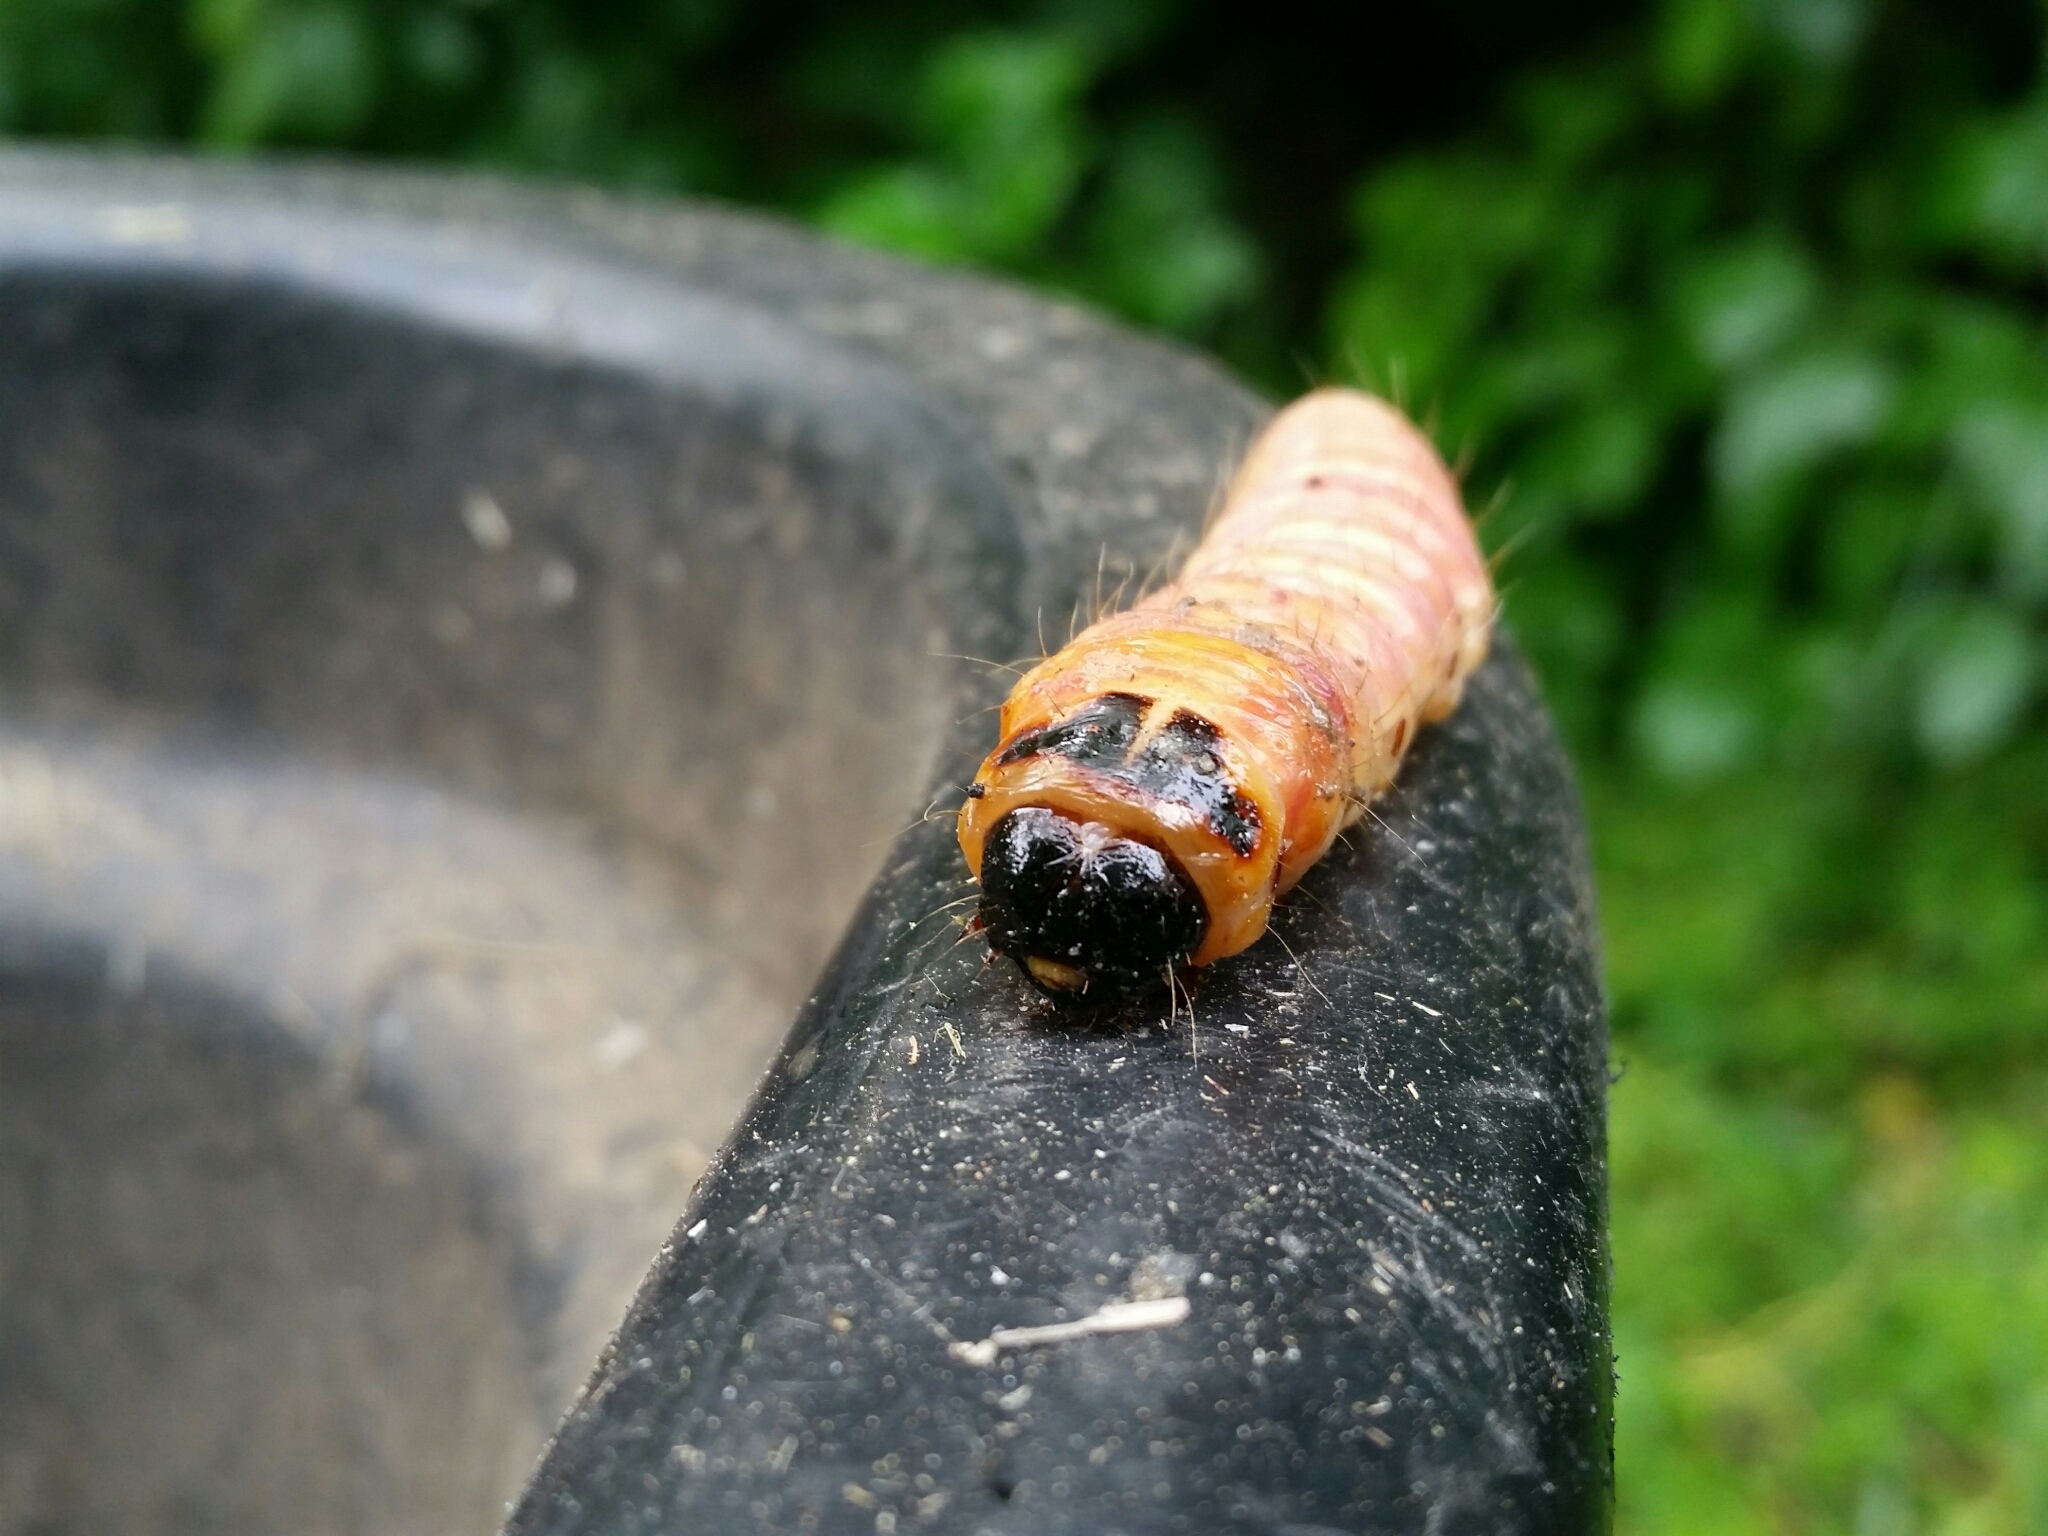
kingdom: Animalia
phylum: Arthropoda
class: Insecta
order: Lepidoptera
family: Cossidae
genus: Cossus
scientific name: Cossus cossus
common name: Goat moth
